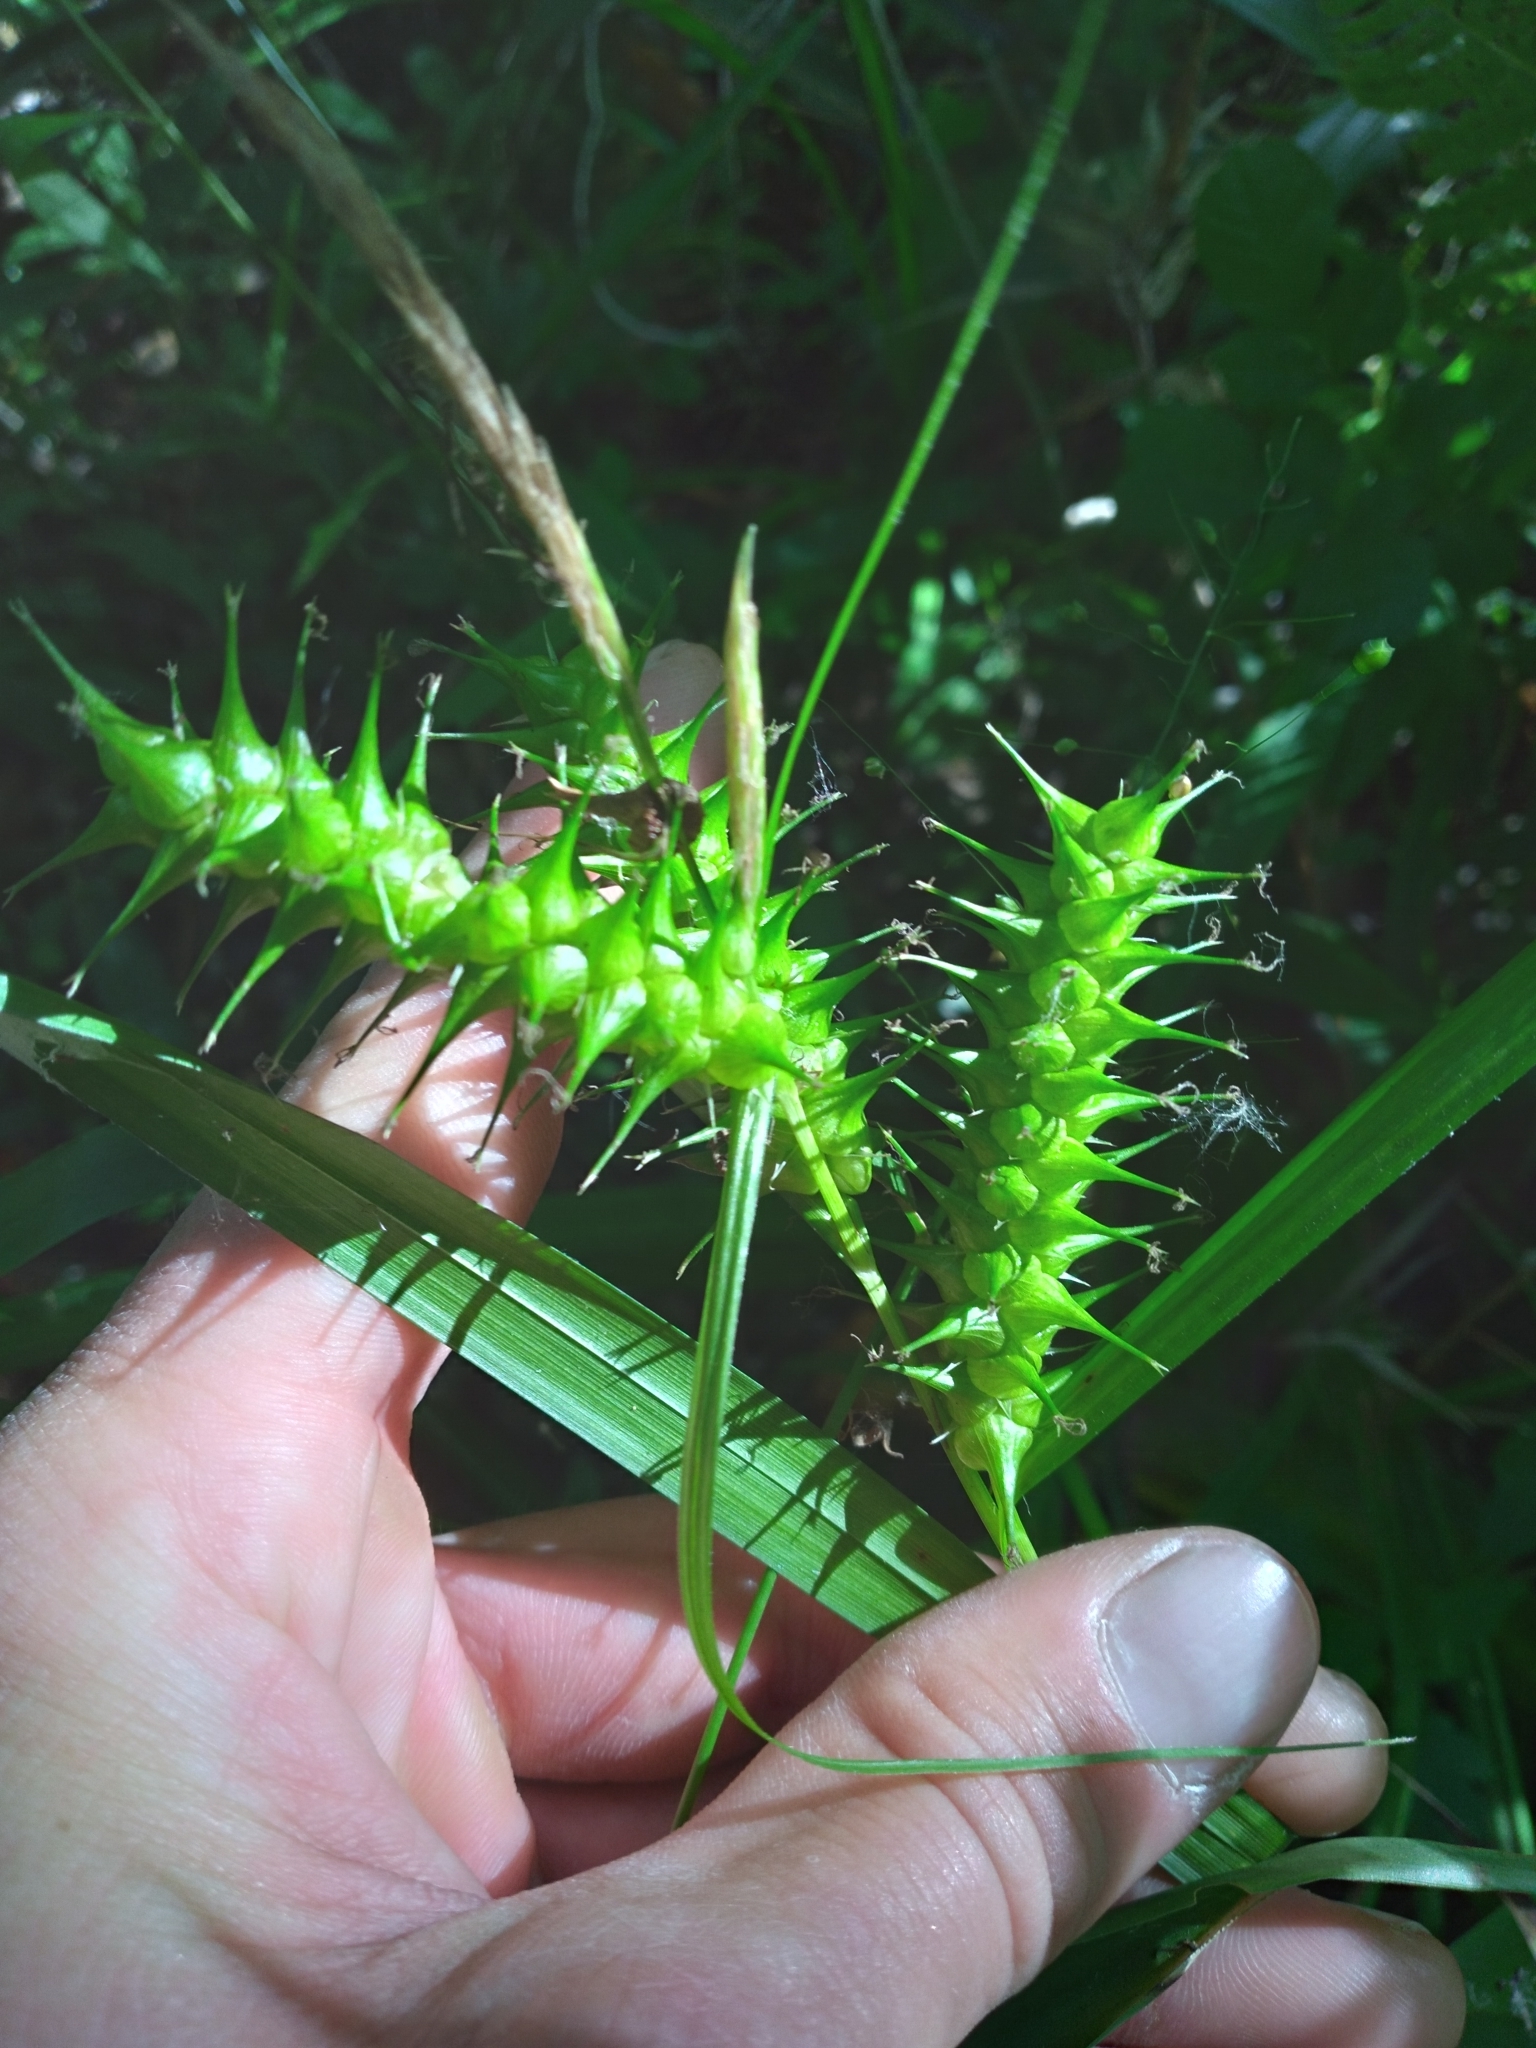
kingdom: Plantae
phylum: Tracheophyta
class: Liliopsida
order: Poales
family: Cyperaceae
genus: Carex
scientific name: Carex gigantea
